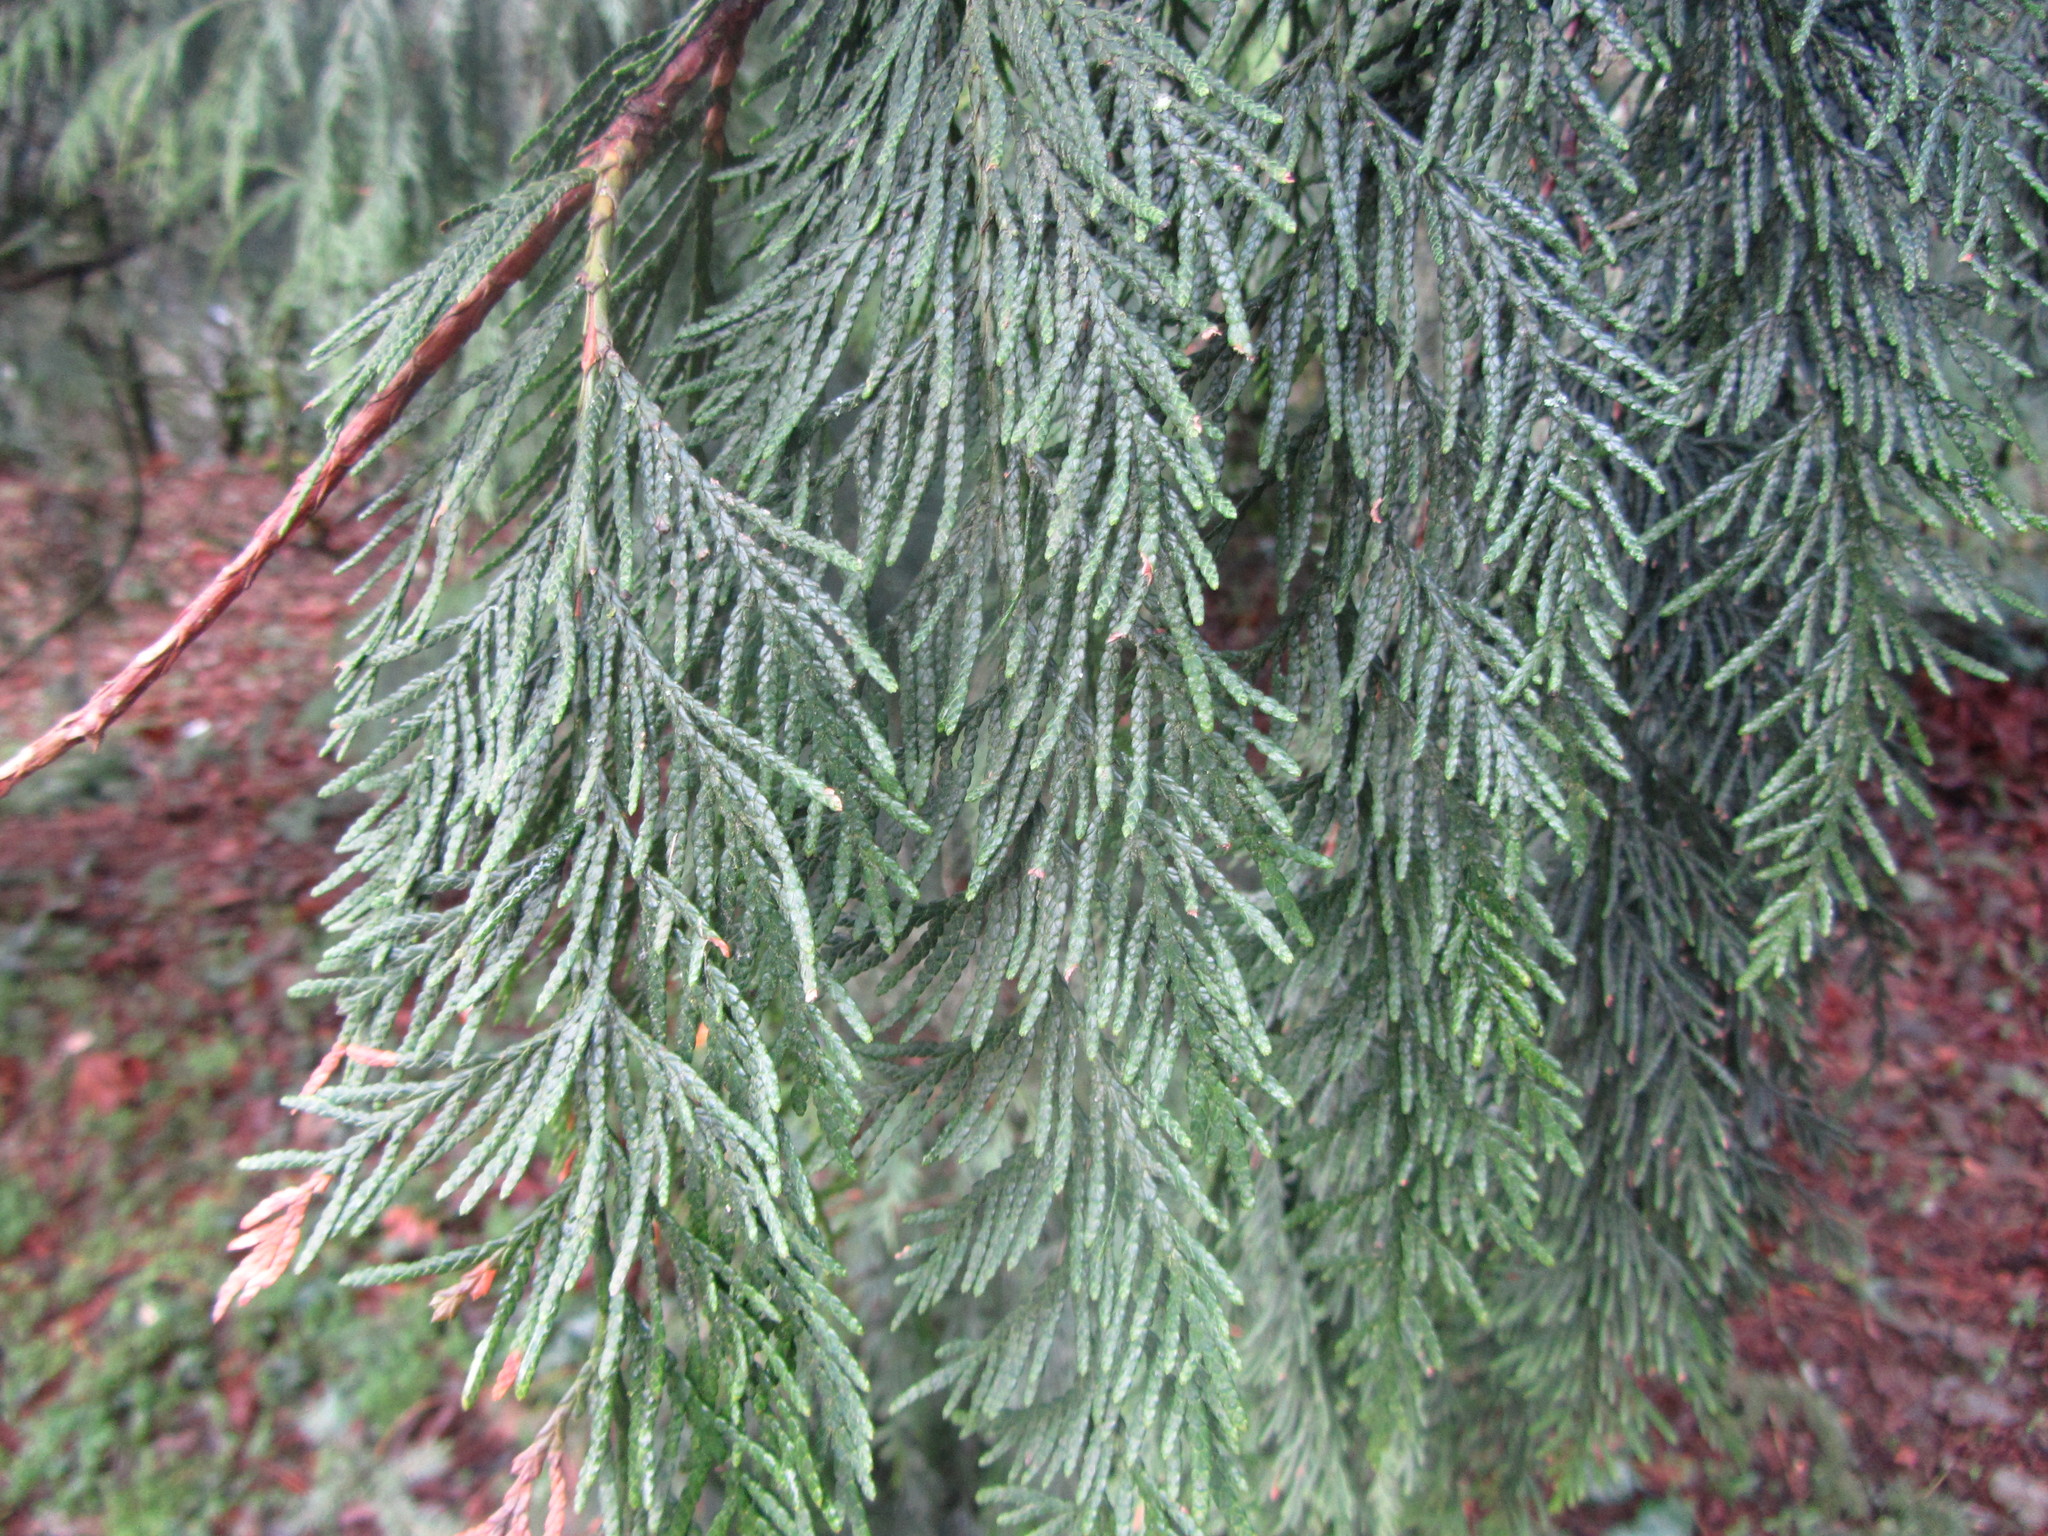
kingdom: Plantae
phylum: Tracheophyta
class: Pinopsida
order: Pinales
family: Cupressaceae
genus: Thuja
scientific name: Thuja plicata
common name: Western red-cedar
